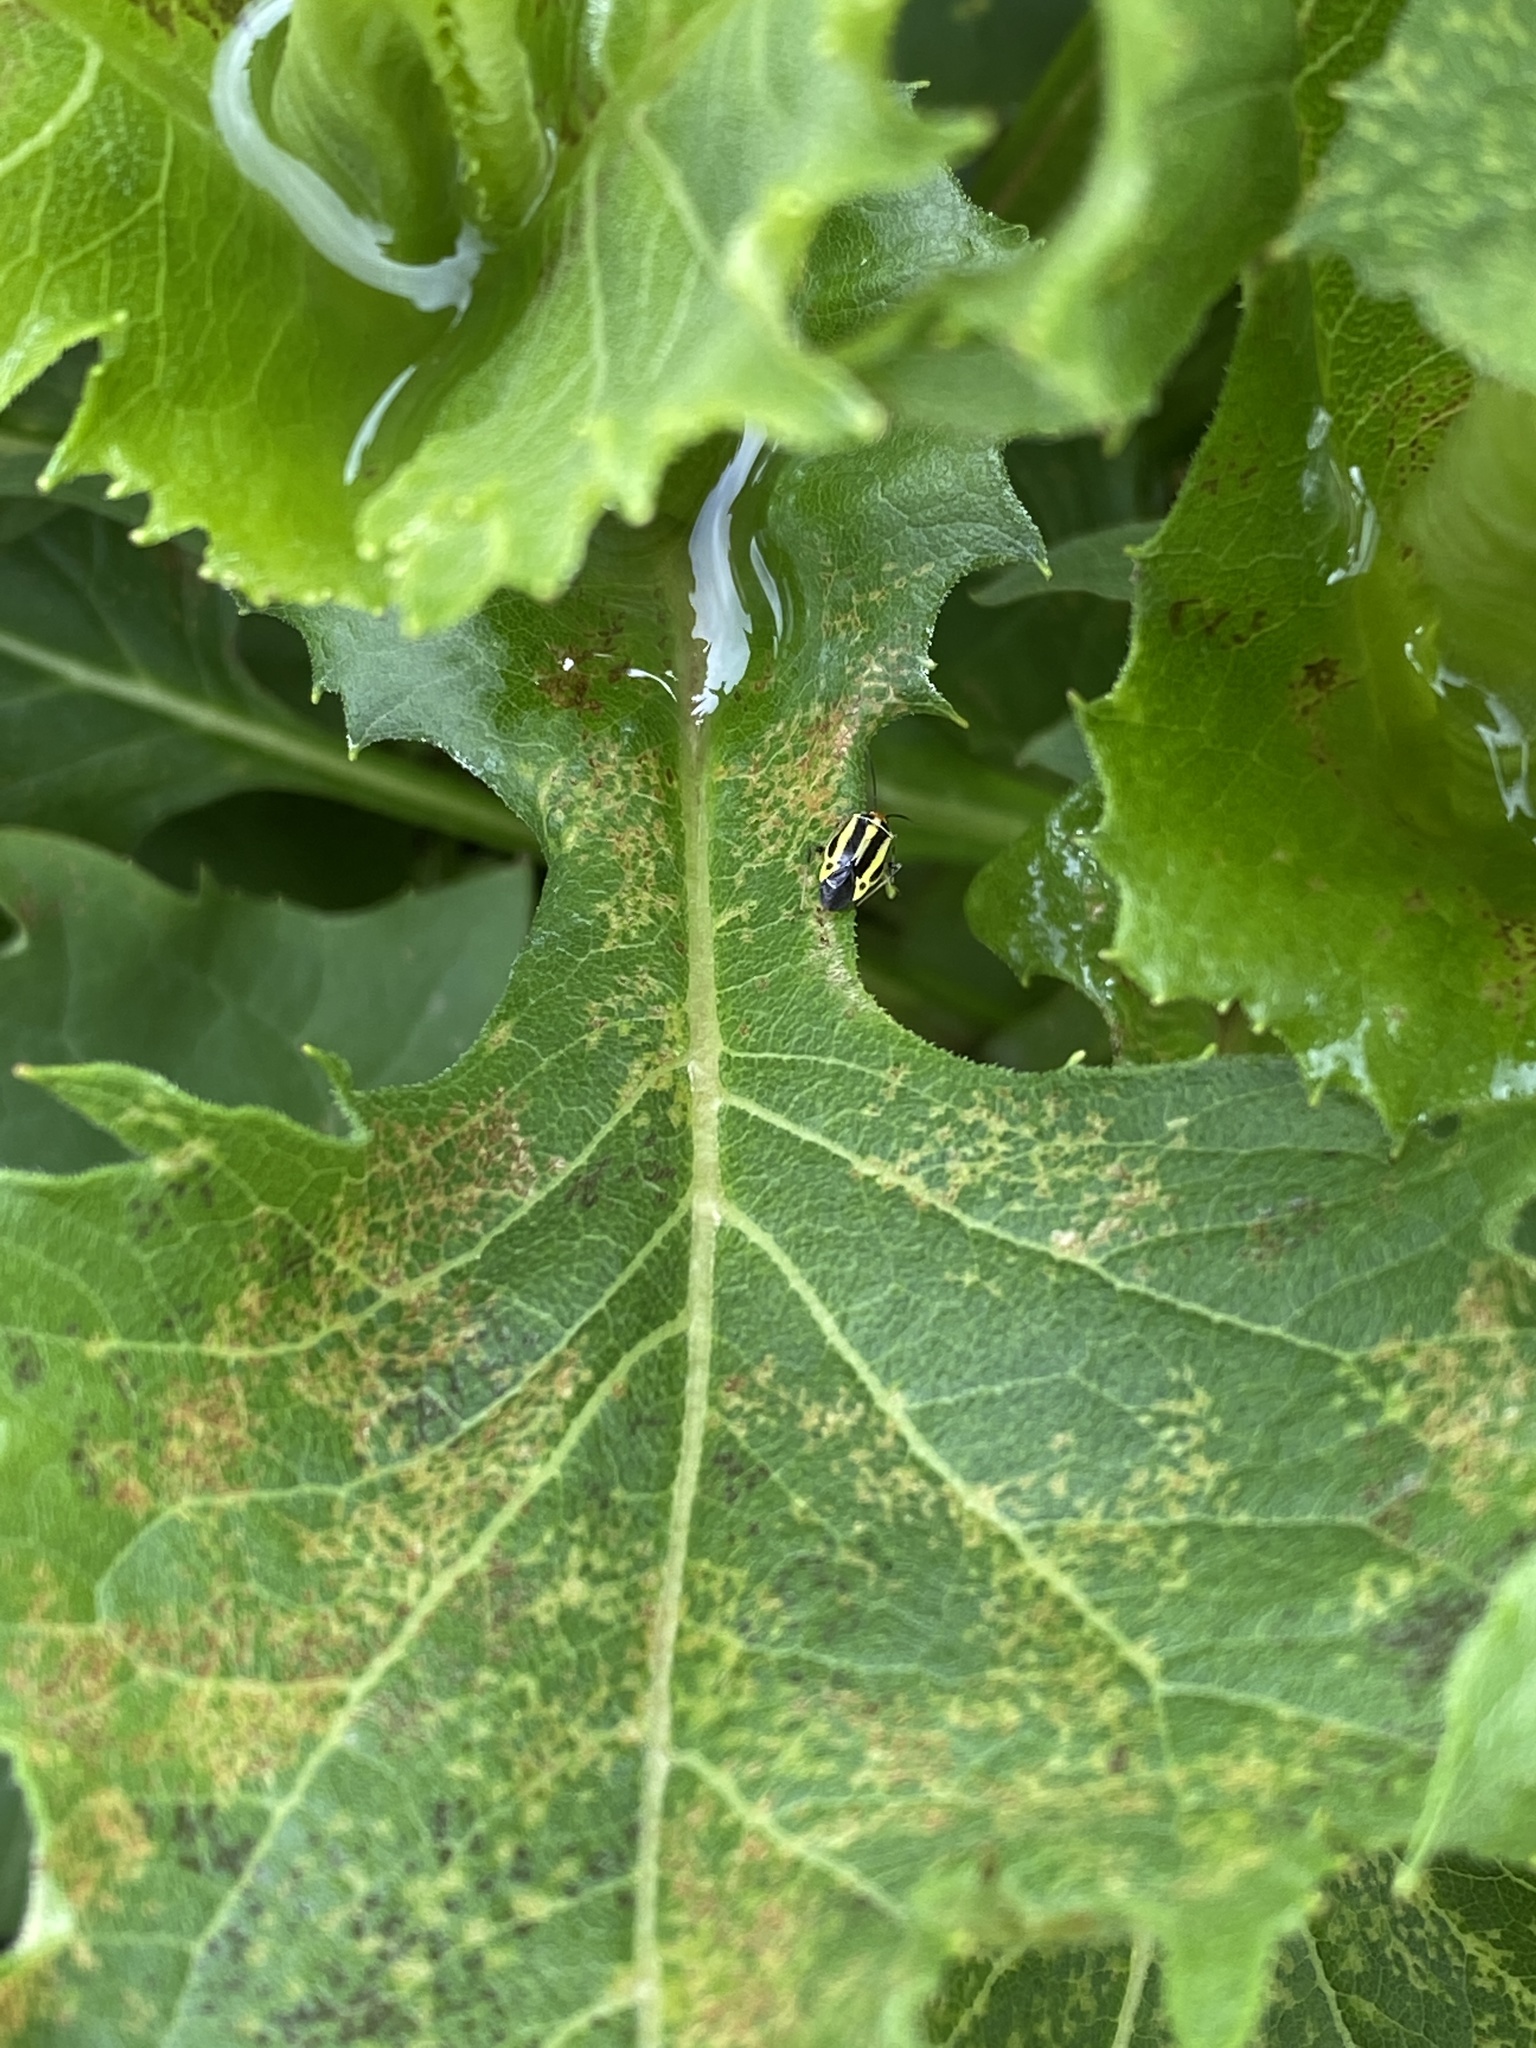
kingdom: Animalia
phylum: Arthropoda
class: Insecta
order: Hemiptera
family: Miridae
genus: Poecilocapsus
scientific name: Poecilocapsus lineatus
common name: Four-lined plant bug
